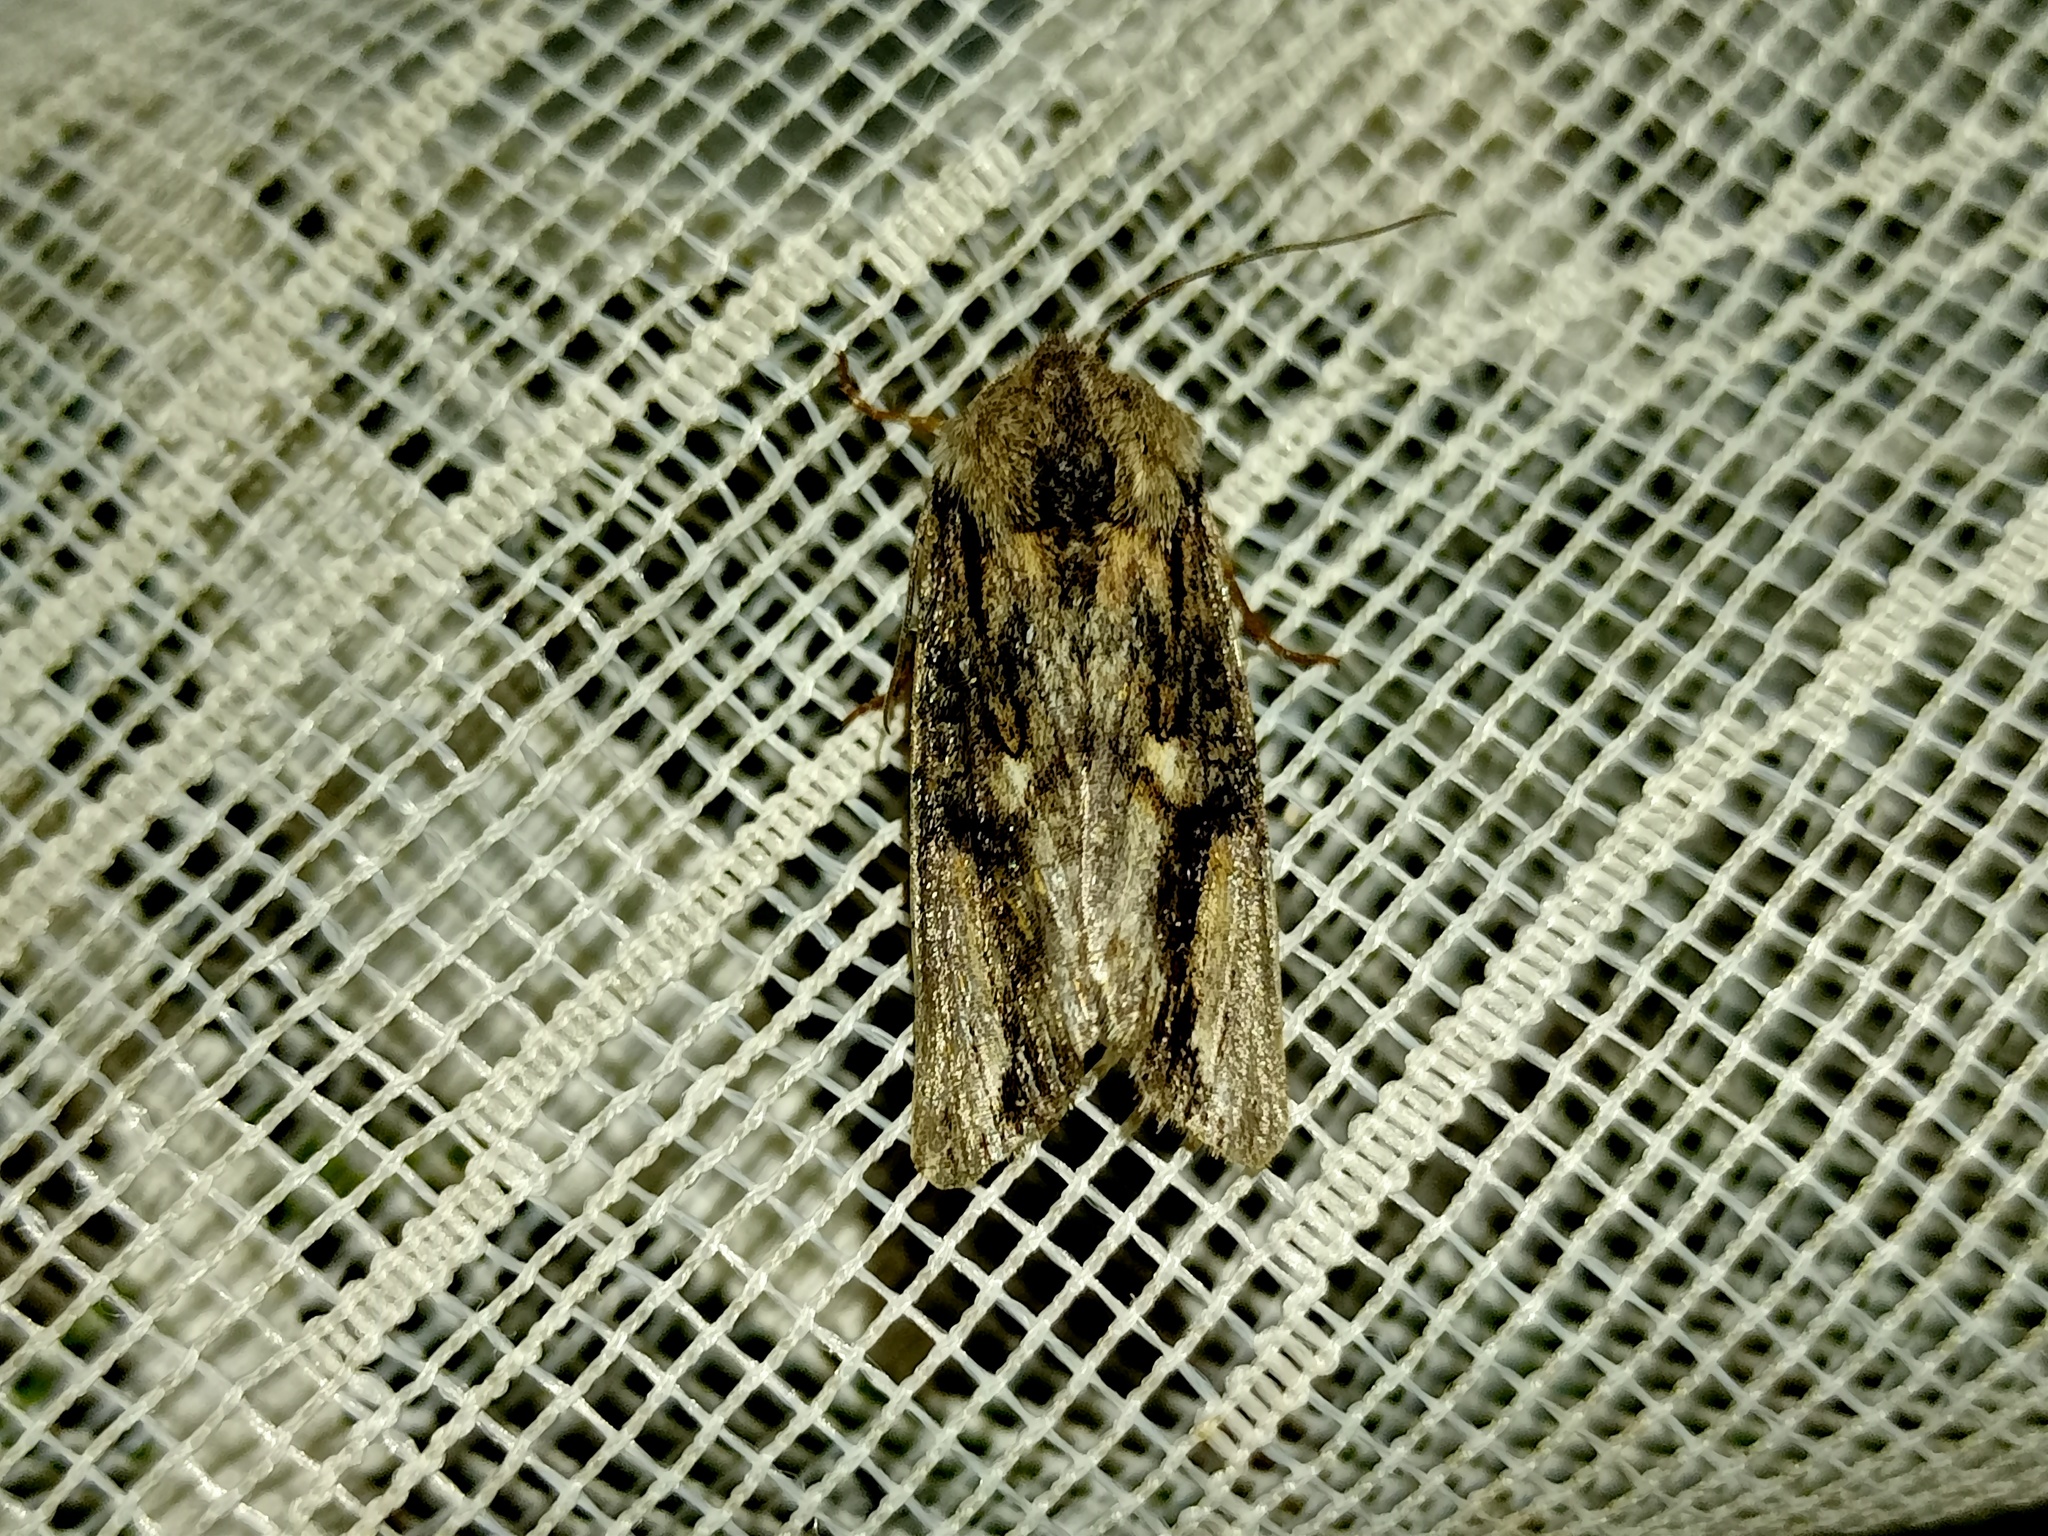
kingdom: Animalia
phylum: Arthropoda
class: Insecta
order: Lepidoptera
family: Noctuidae
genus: Egira
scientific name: Egira conspicillaris
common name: Silver cloud
